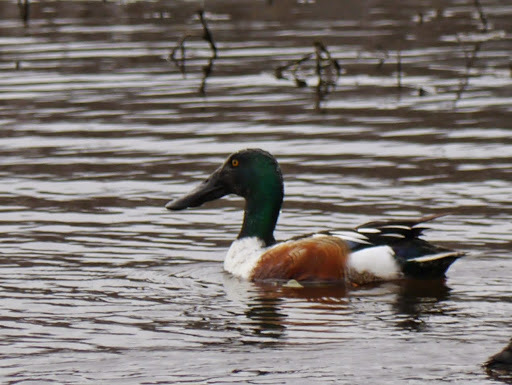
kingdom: Animalia
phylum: Chordata
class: Aves
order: Anseriformes
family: Anatidae
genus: Spatula
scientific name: Spatula clypeata
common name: Northern shoveler
